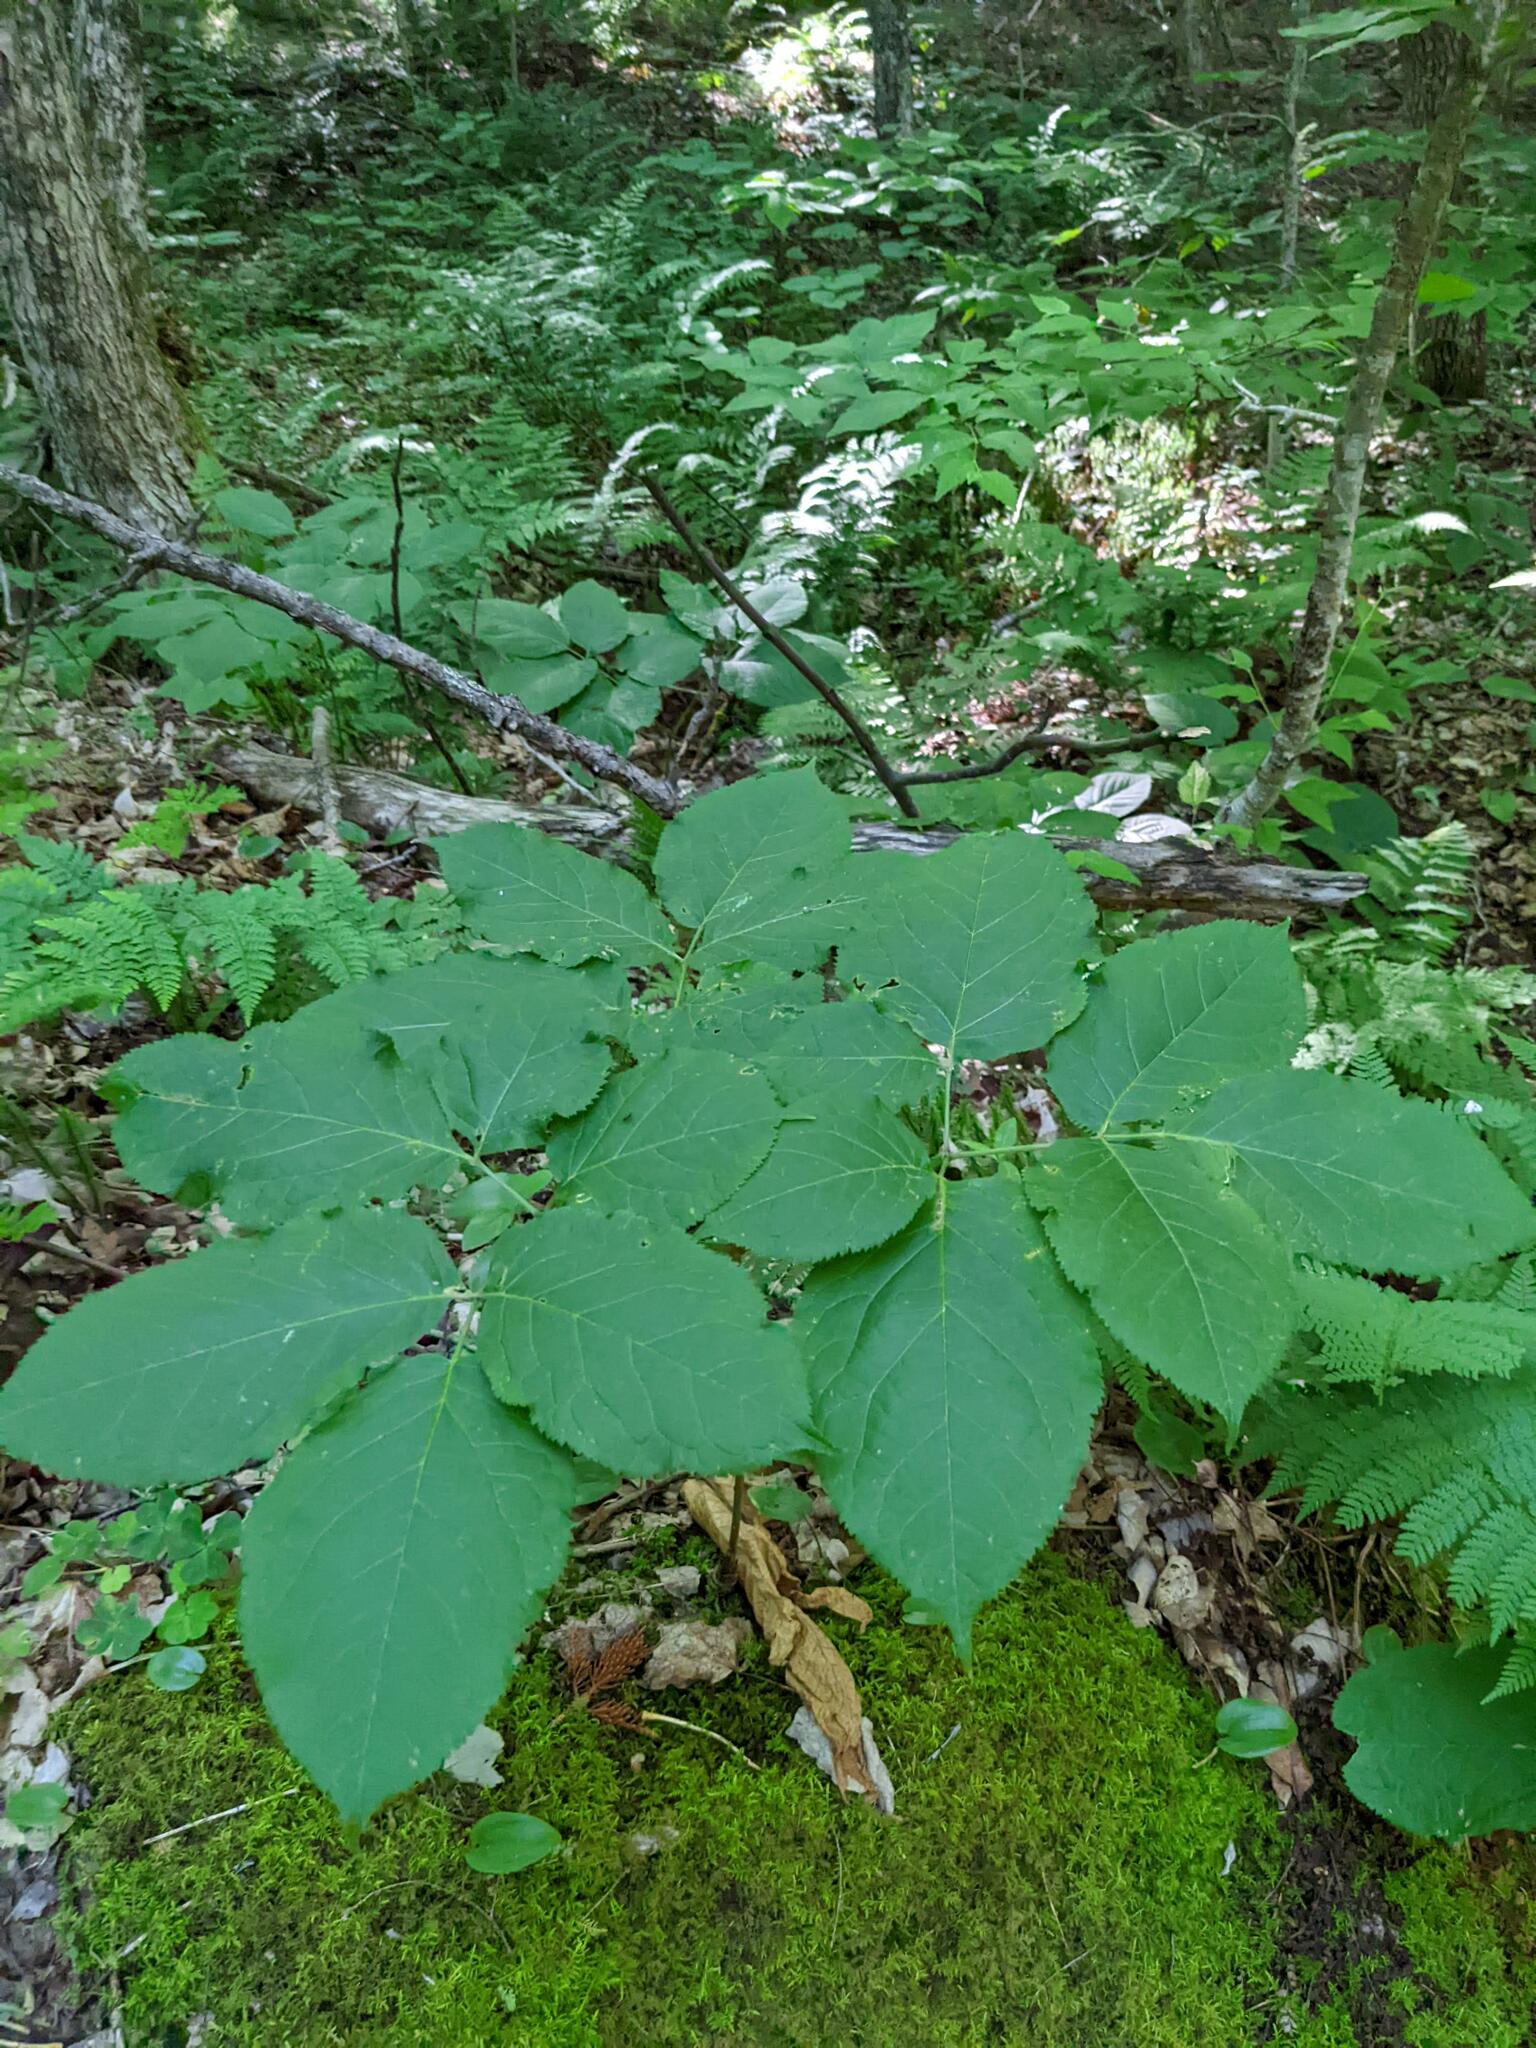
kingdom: Plantae
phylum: Tracheophyta
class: Magnoliopsida
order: Apiales
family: Araliaceae
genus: Aralia
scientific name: Aralia nudicaulis
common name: Wild sarsaparilla
